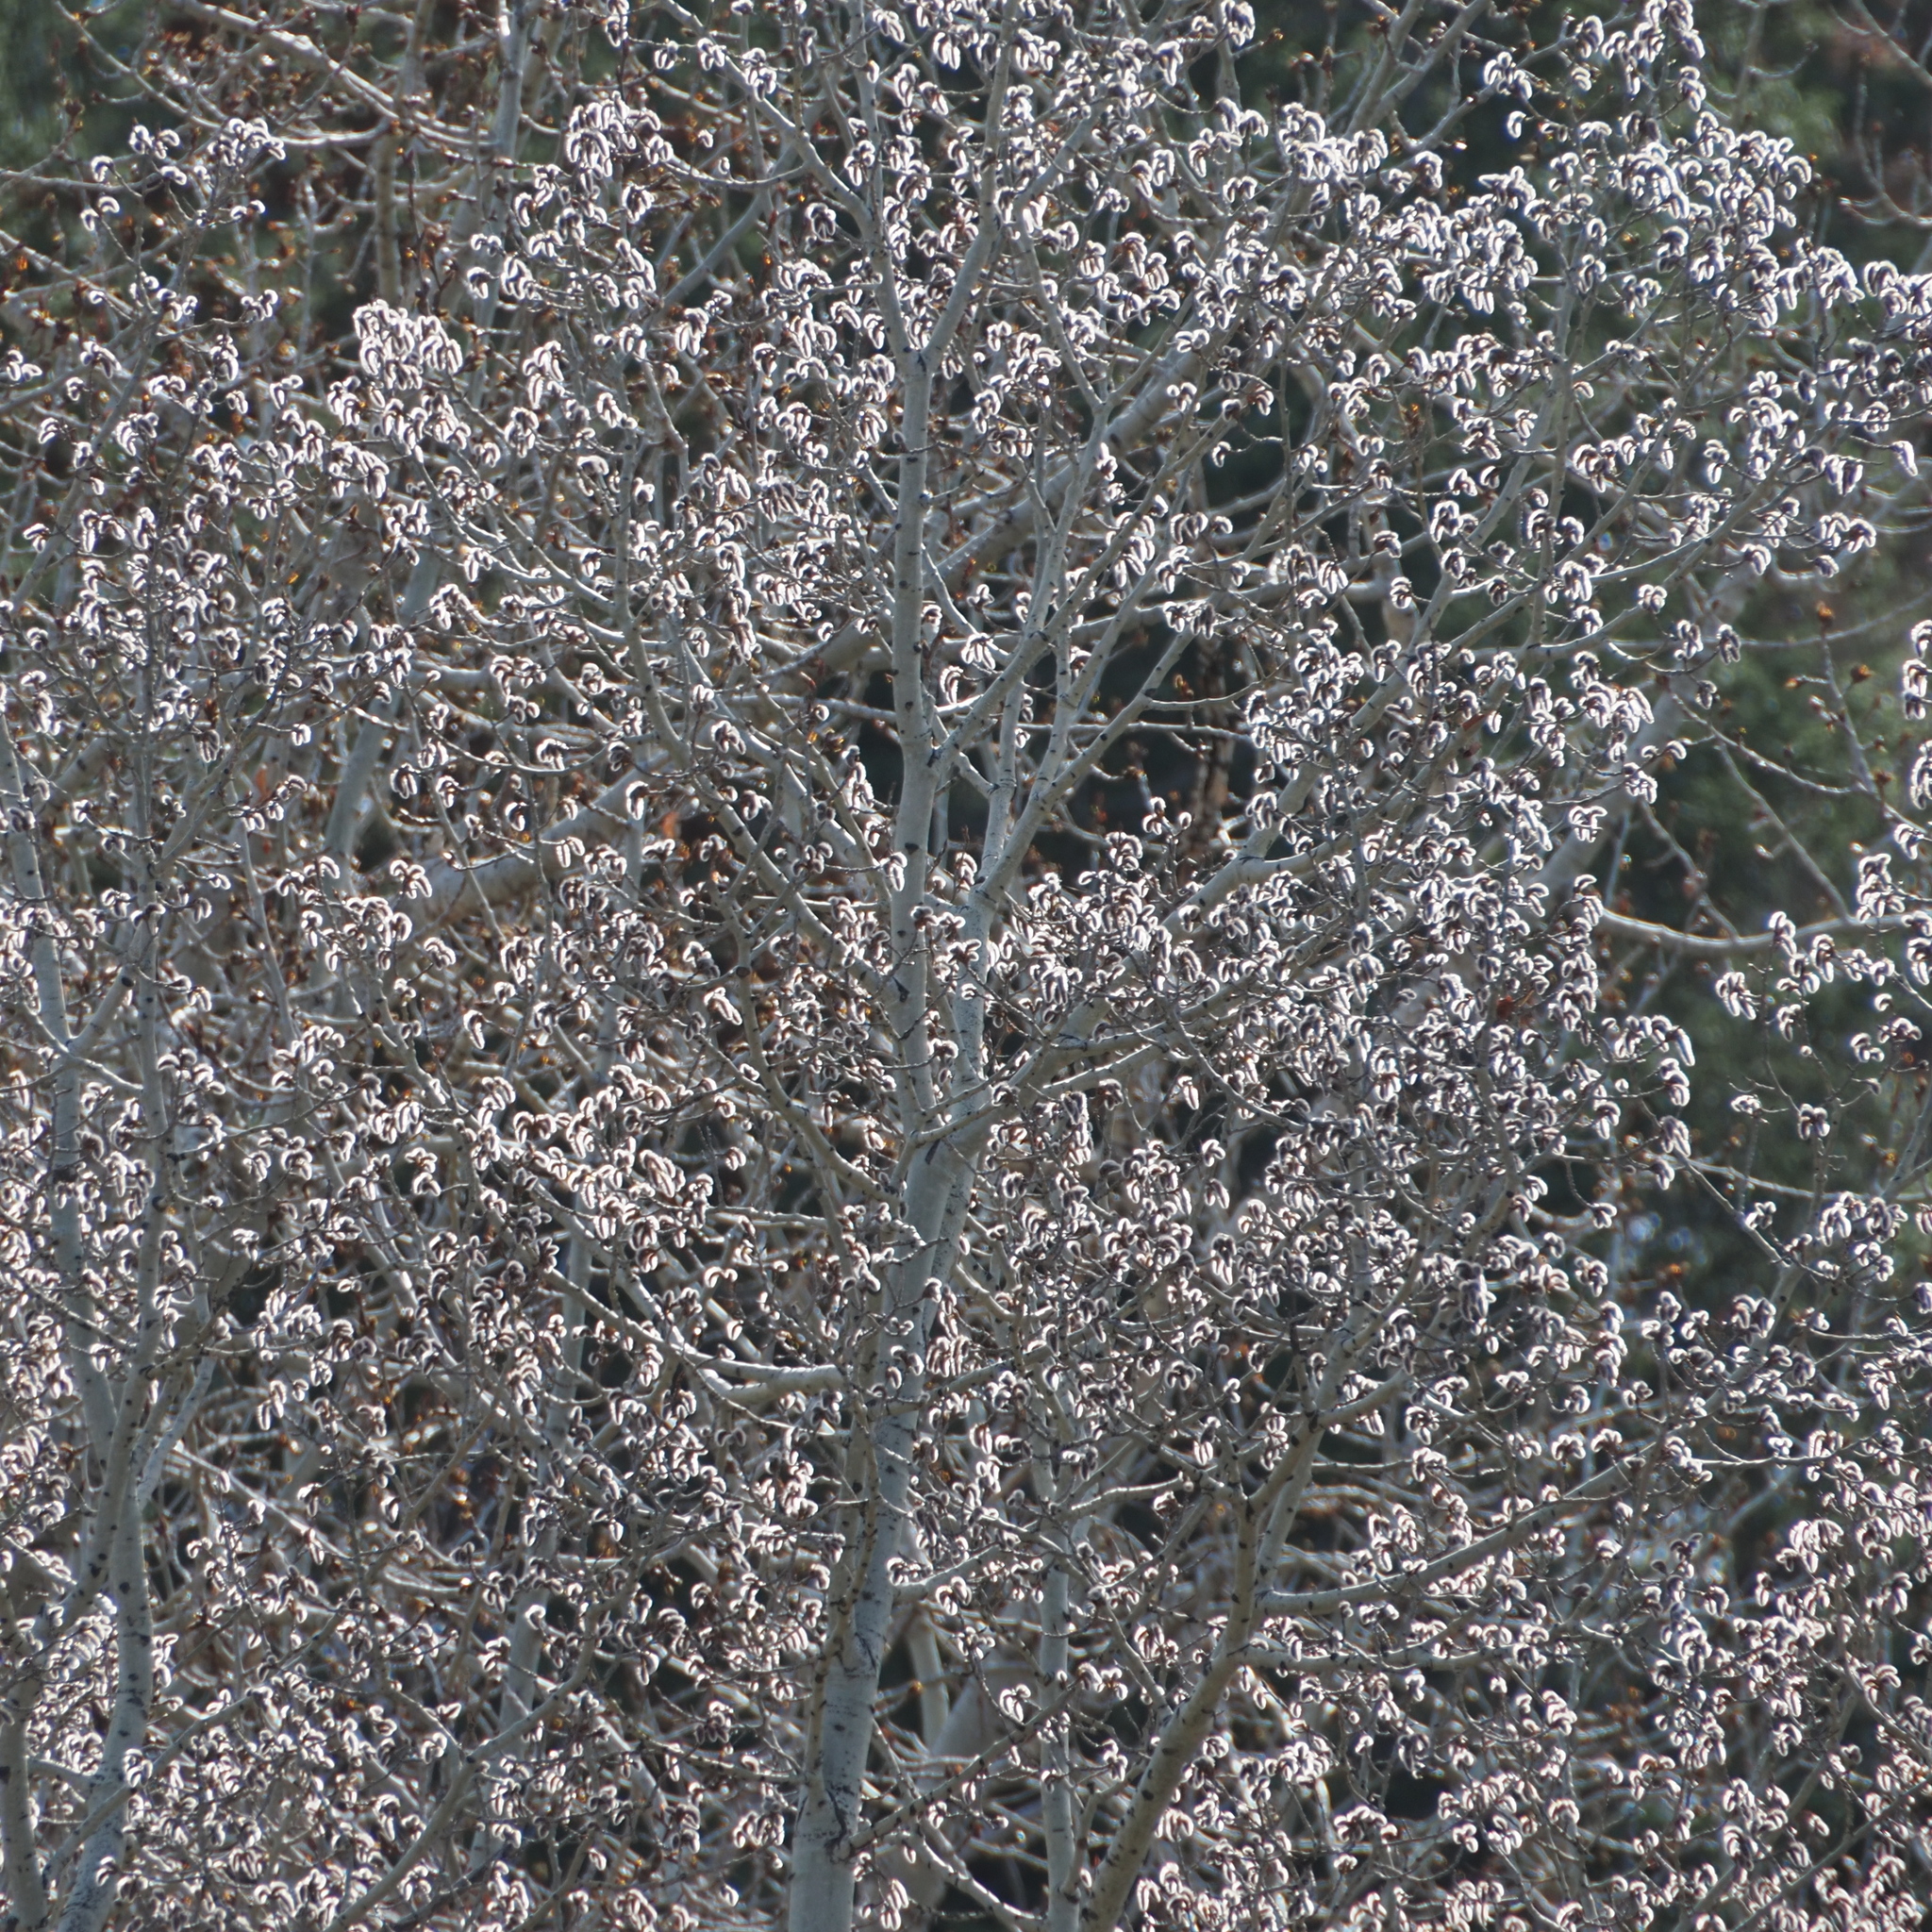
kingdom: Plantae
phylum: Tracheophyta
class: Magnoliopsida
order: Malpighiales
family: Salicaceae
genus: Populus
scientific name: Populus tremuloides
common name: Quaking aspen
